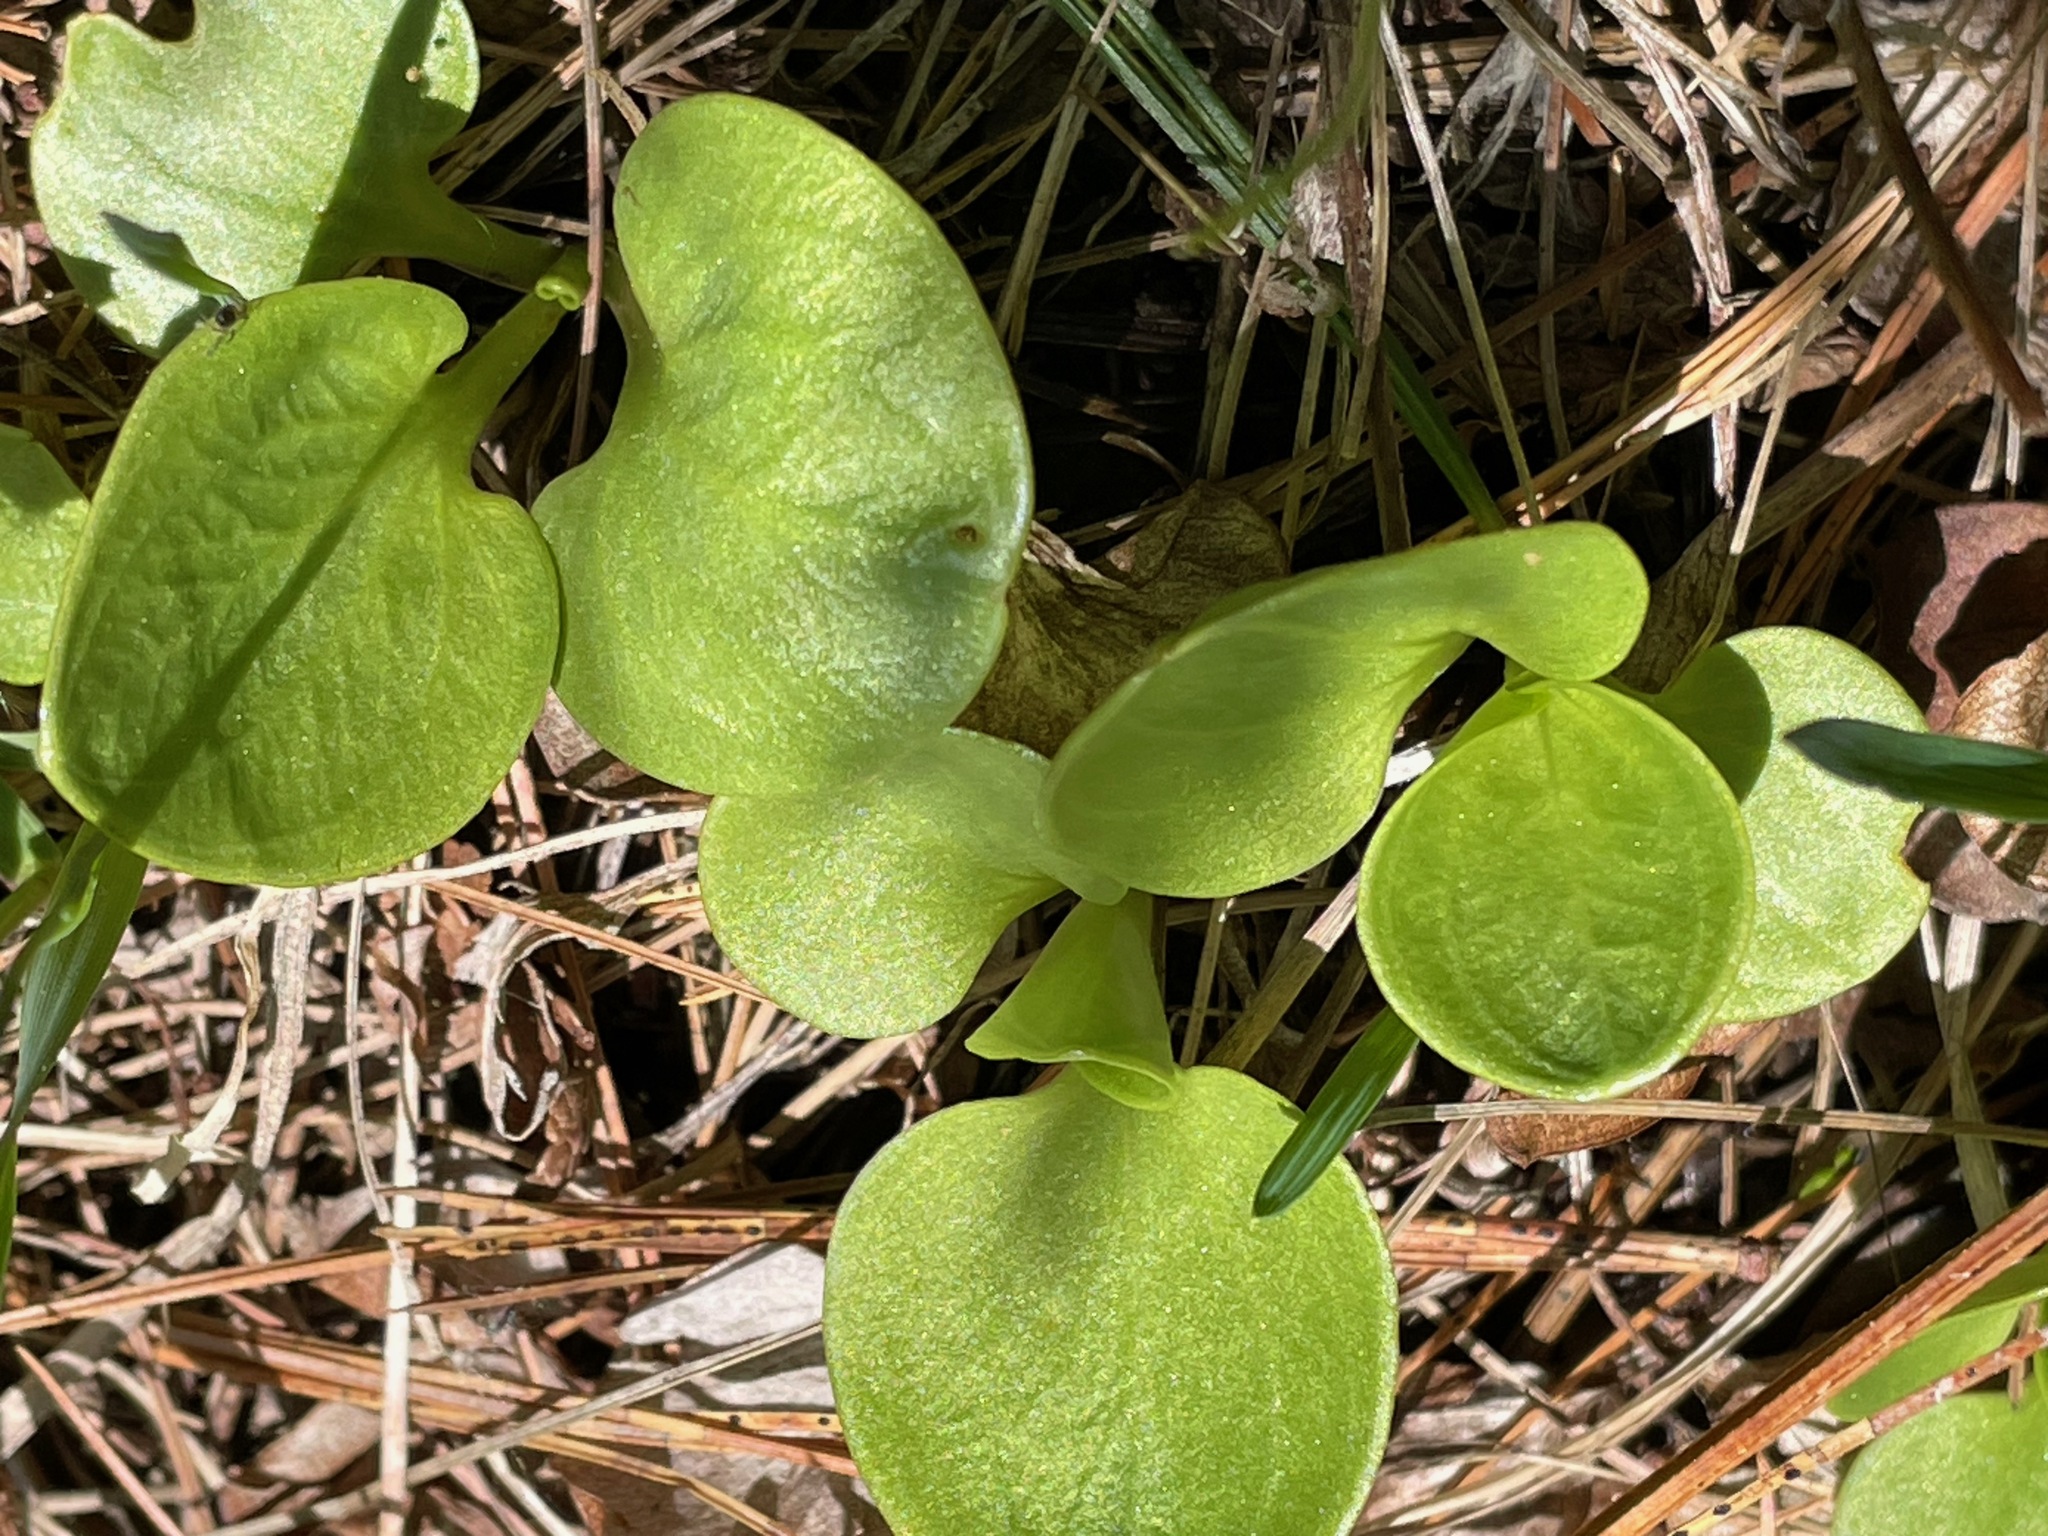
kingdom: Plantae
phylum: Tracheophyta
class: Magnoliopsida
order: Celastrales
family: Parnassiaceae
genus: Parnassia
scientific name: Parnassia glauca
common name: American grass-of-parnassus
